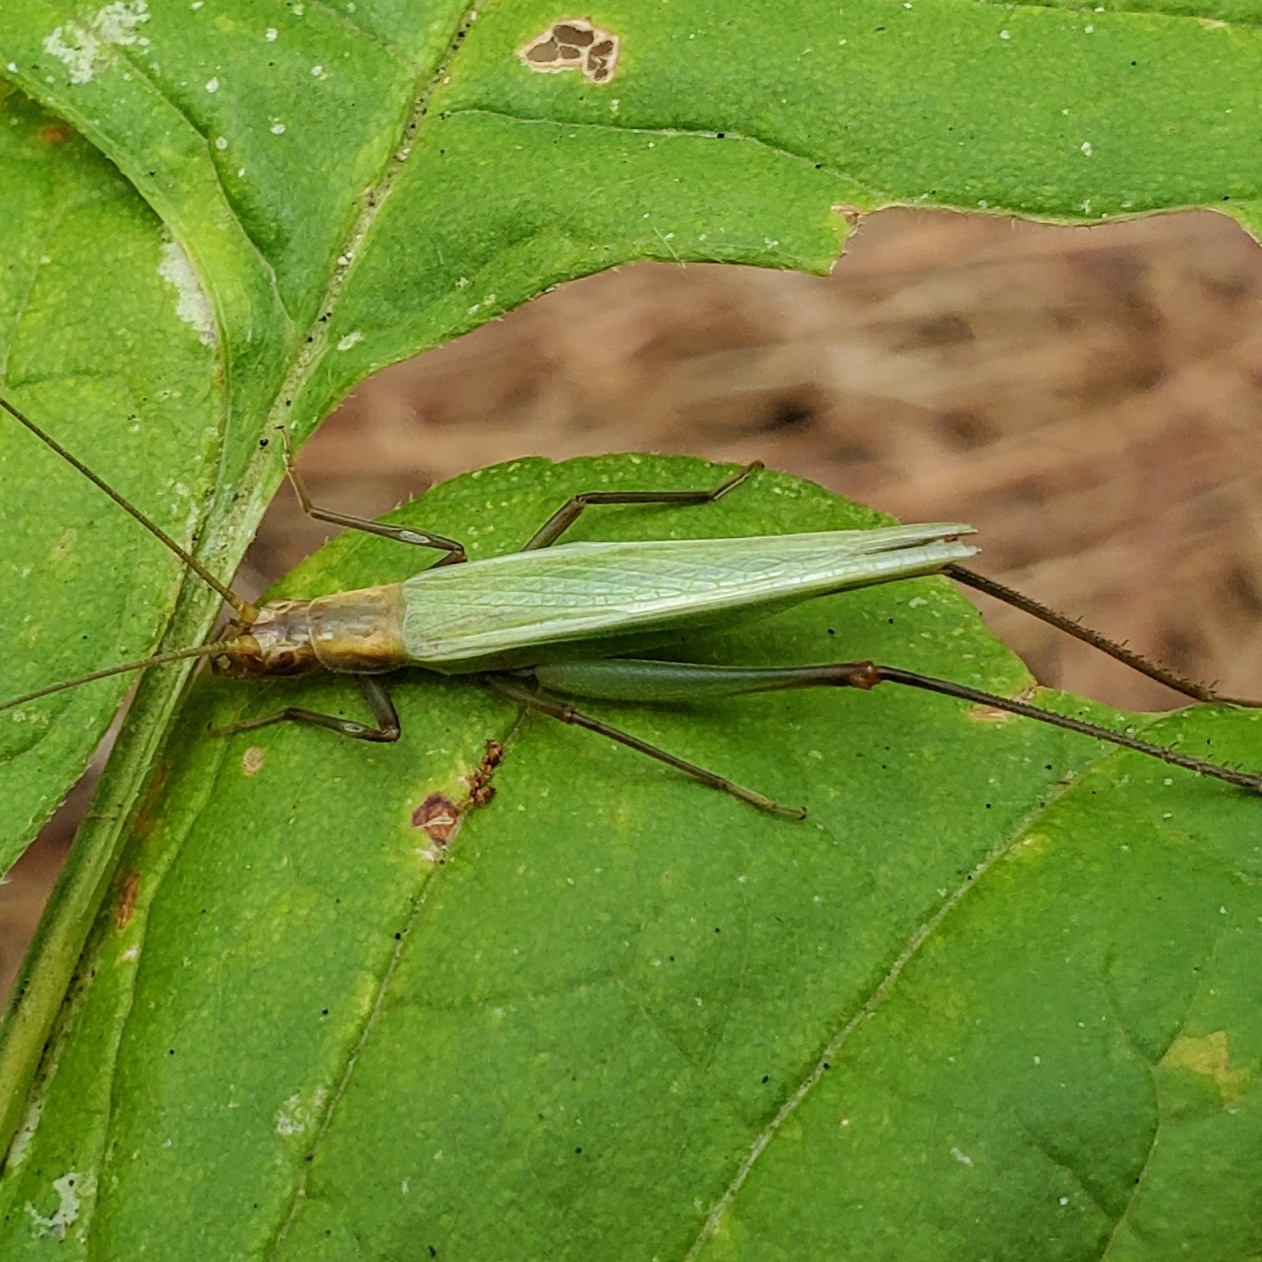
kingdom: Animalia
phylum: Arthropoda
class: Insecta
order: Orthoptera
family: Gryllidae
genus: Oecanthus
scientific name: Oecanthus pini
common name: Pine tree cricket
